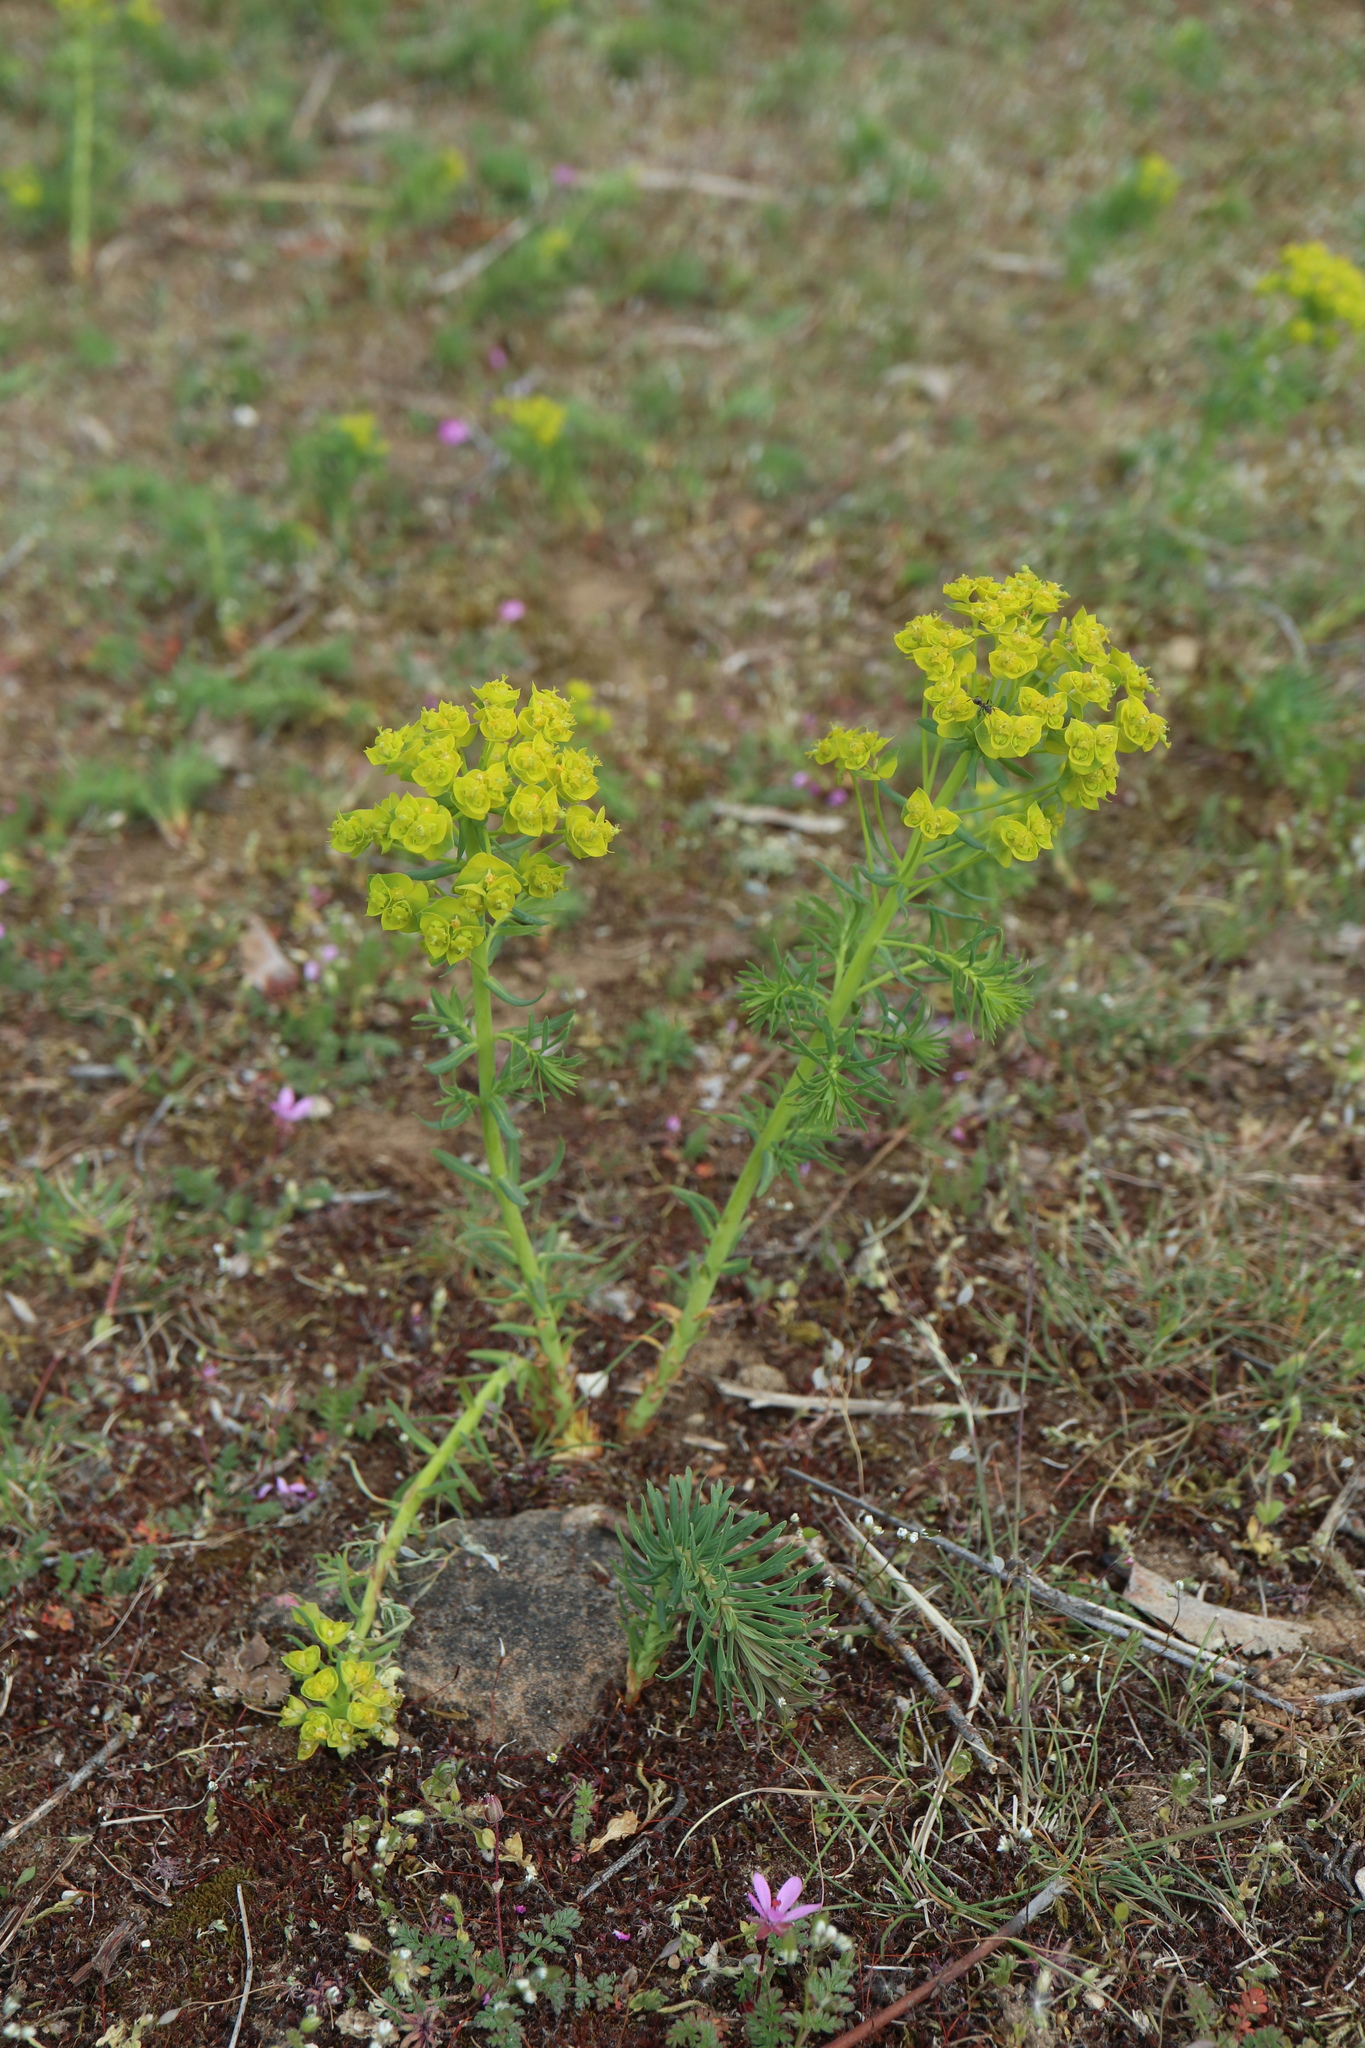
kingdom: Plantae
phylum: Tracheophyta
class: Magnoliopsida
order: Malpighiales
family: Euphorbiaceae
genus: Euphorbia
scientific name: Euphorbia cyparissias
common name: Cypress spurge
